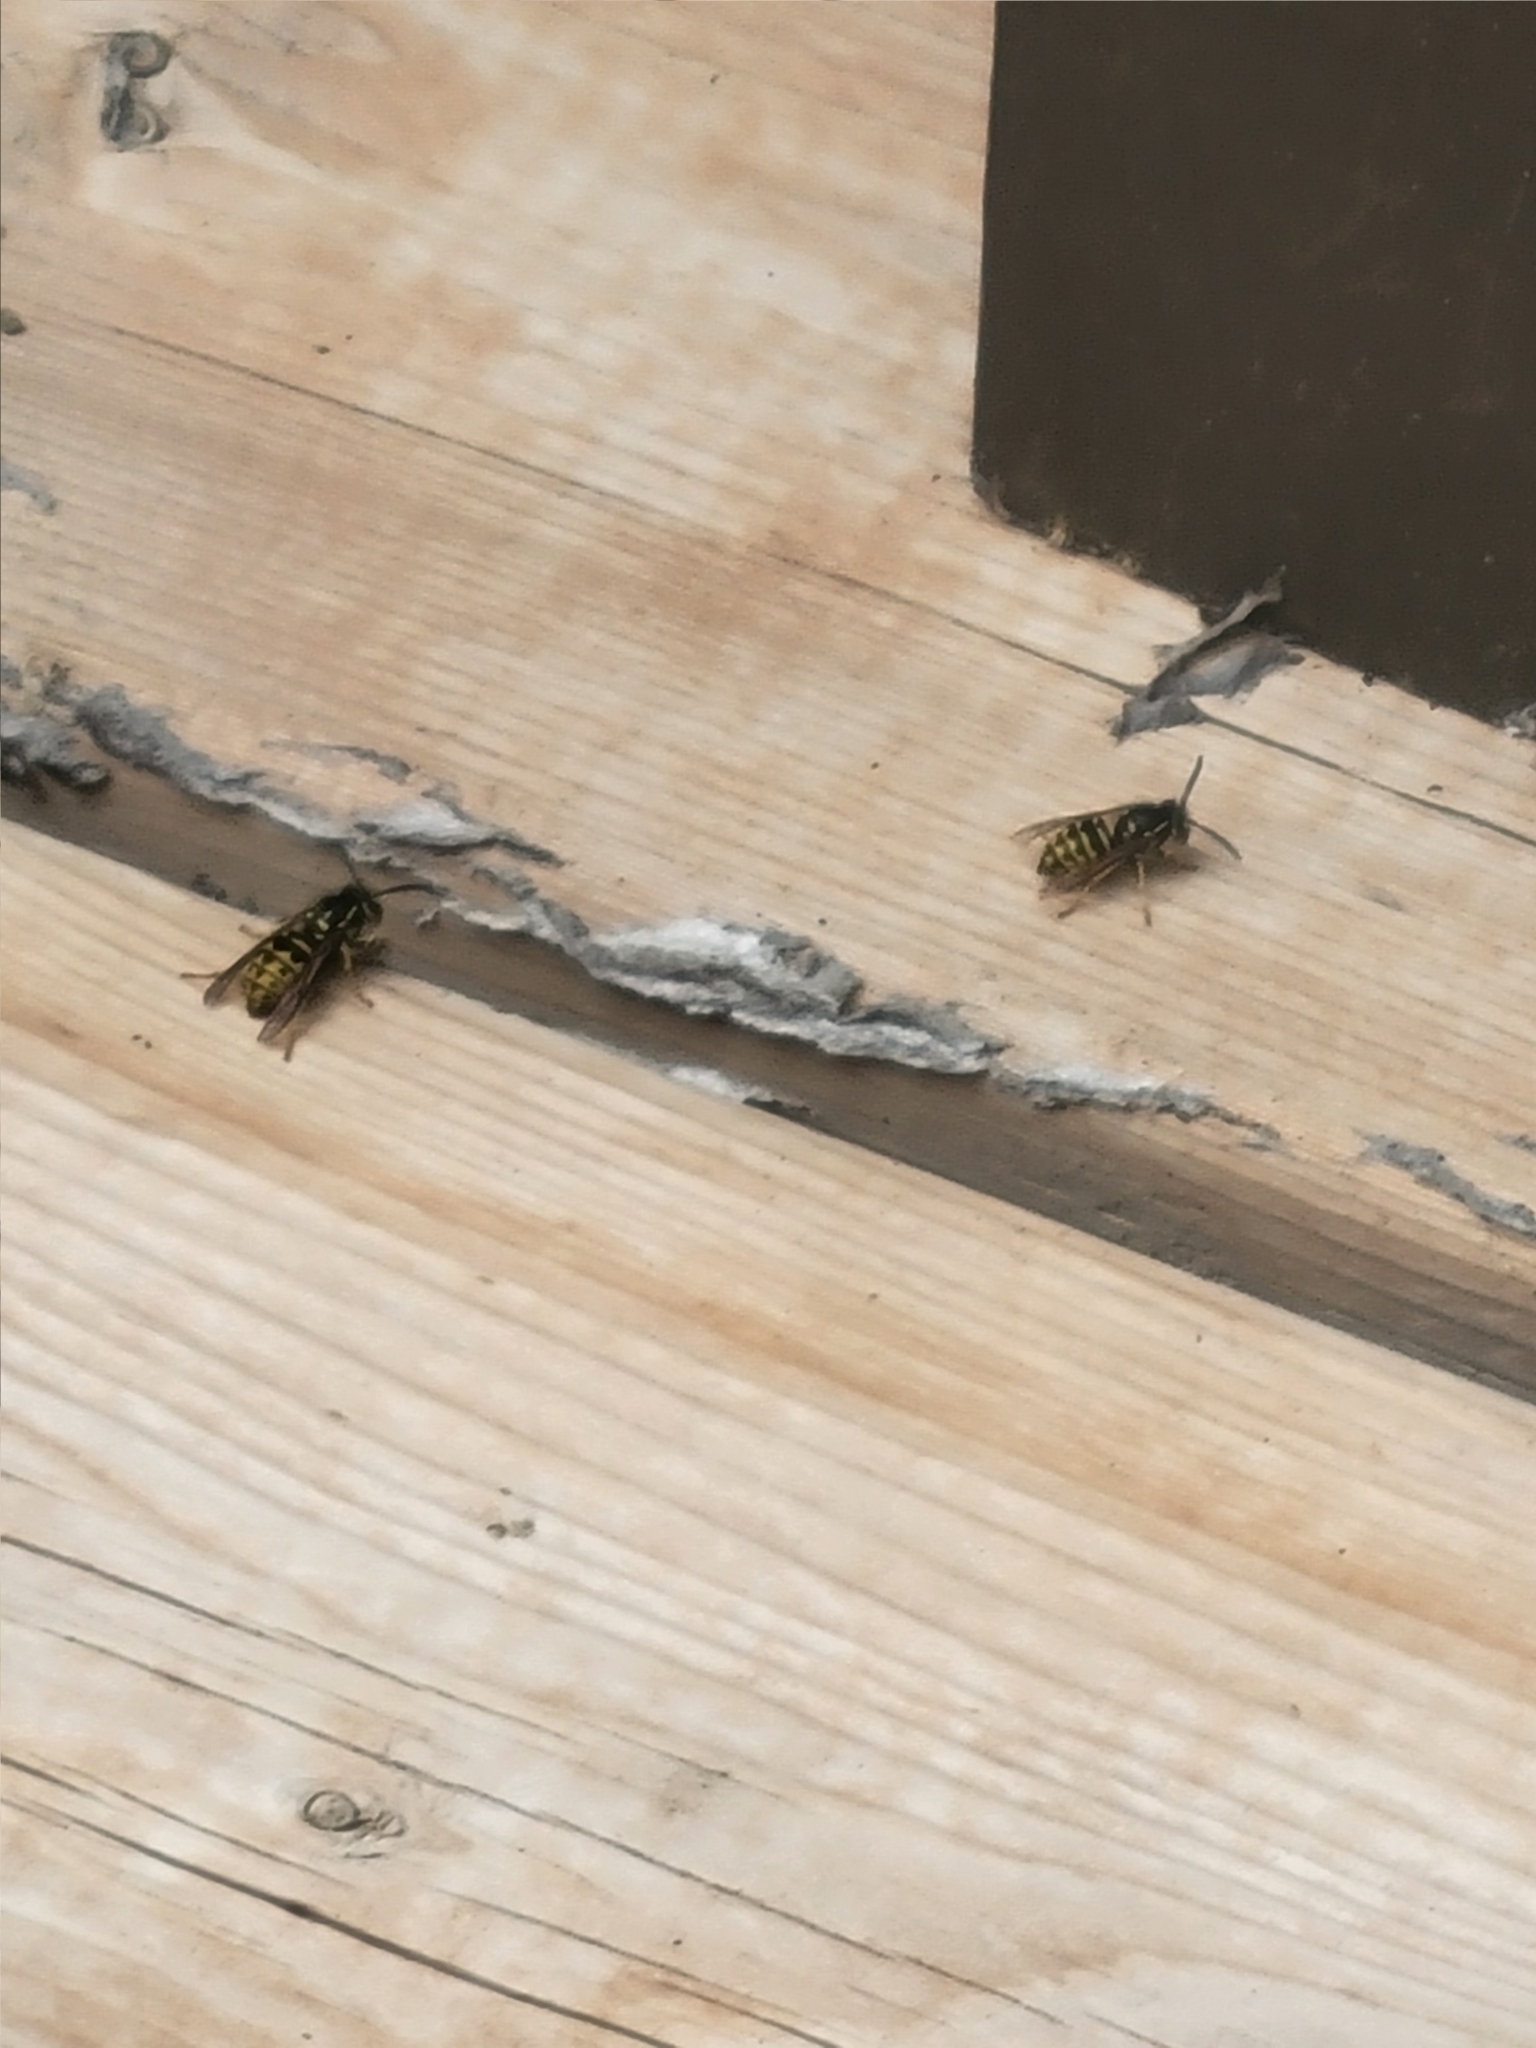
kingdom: Animalia
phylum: Arthropoda
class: Insecta
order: Hymenoptera
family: Vespidae
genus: Dolichovespula
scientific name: Dolichovespula arenaria
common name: Aerial yellowjacket
